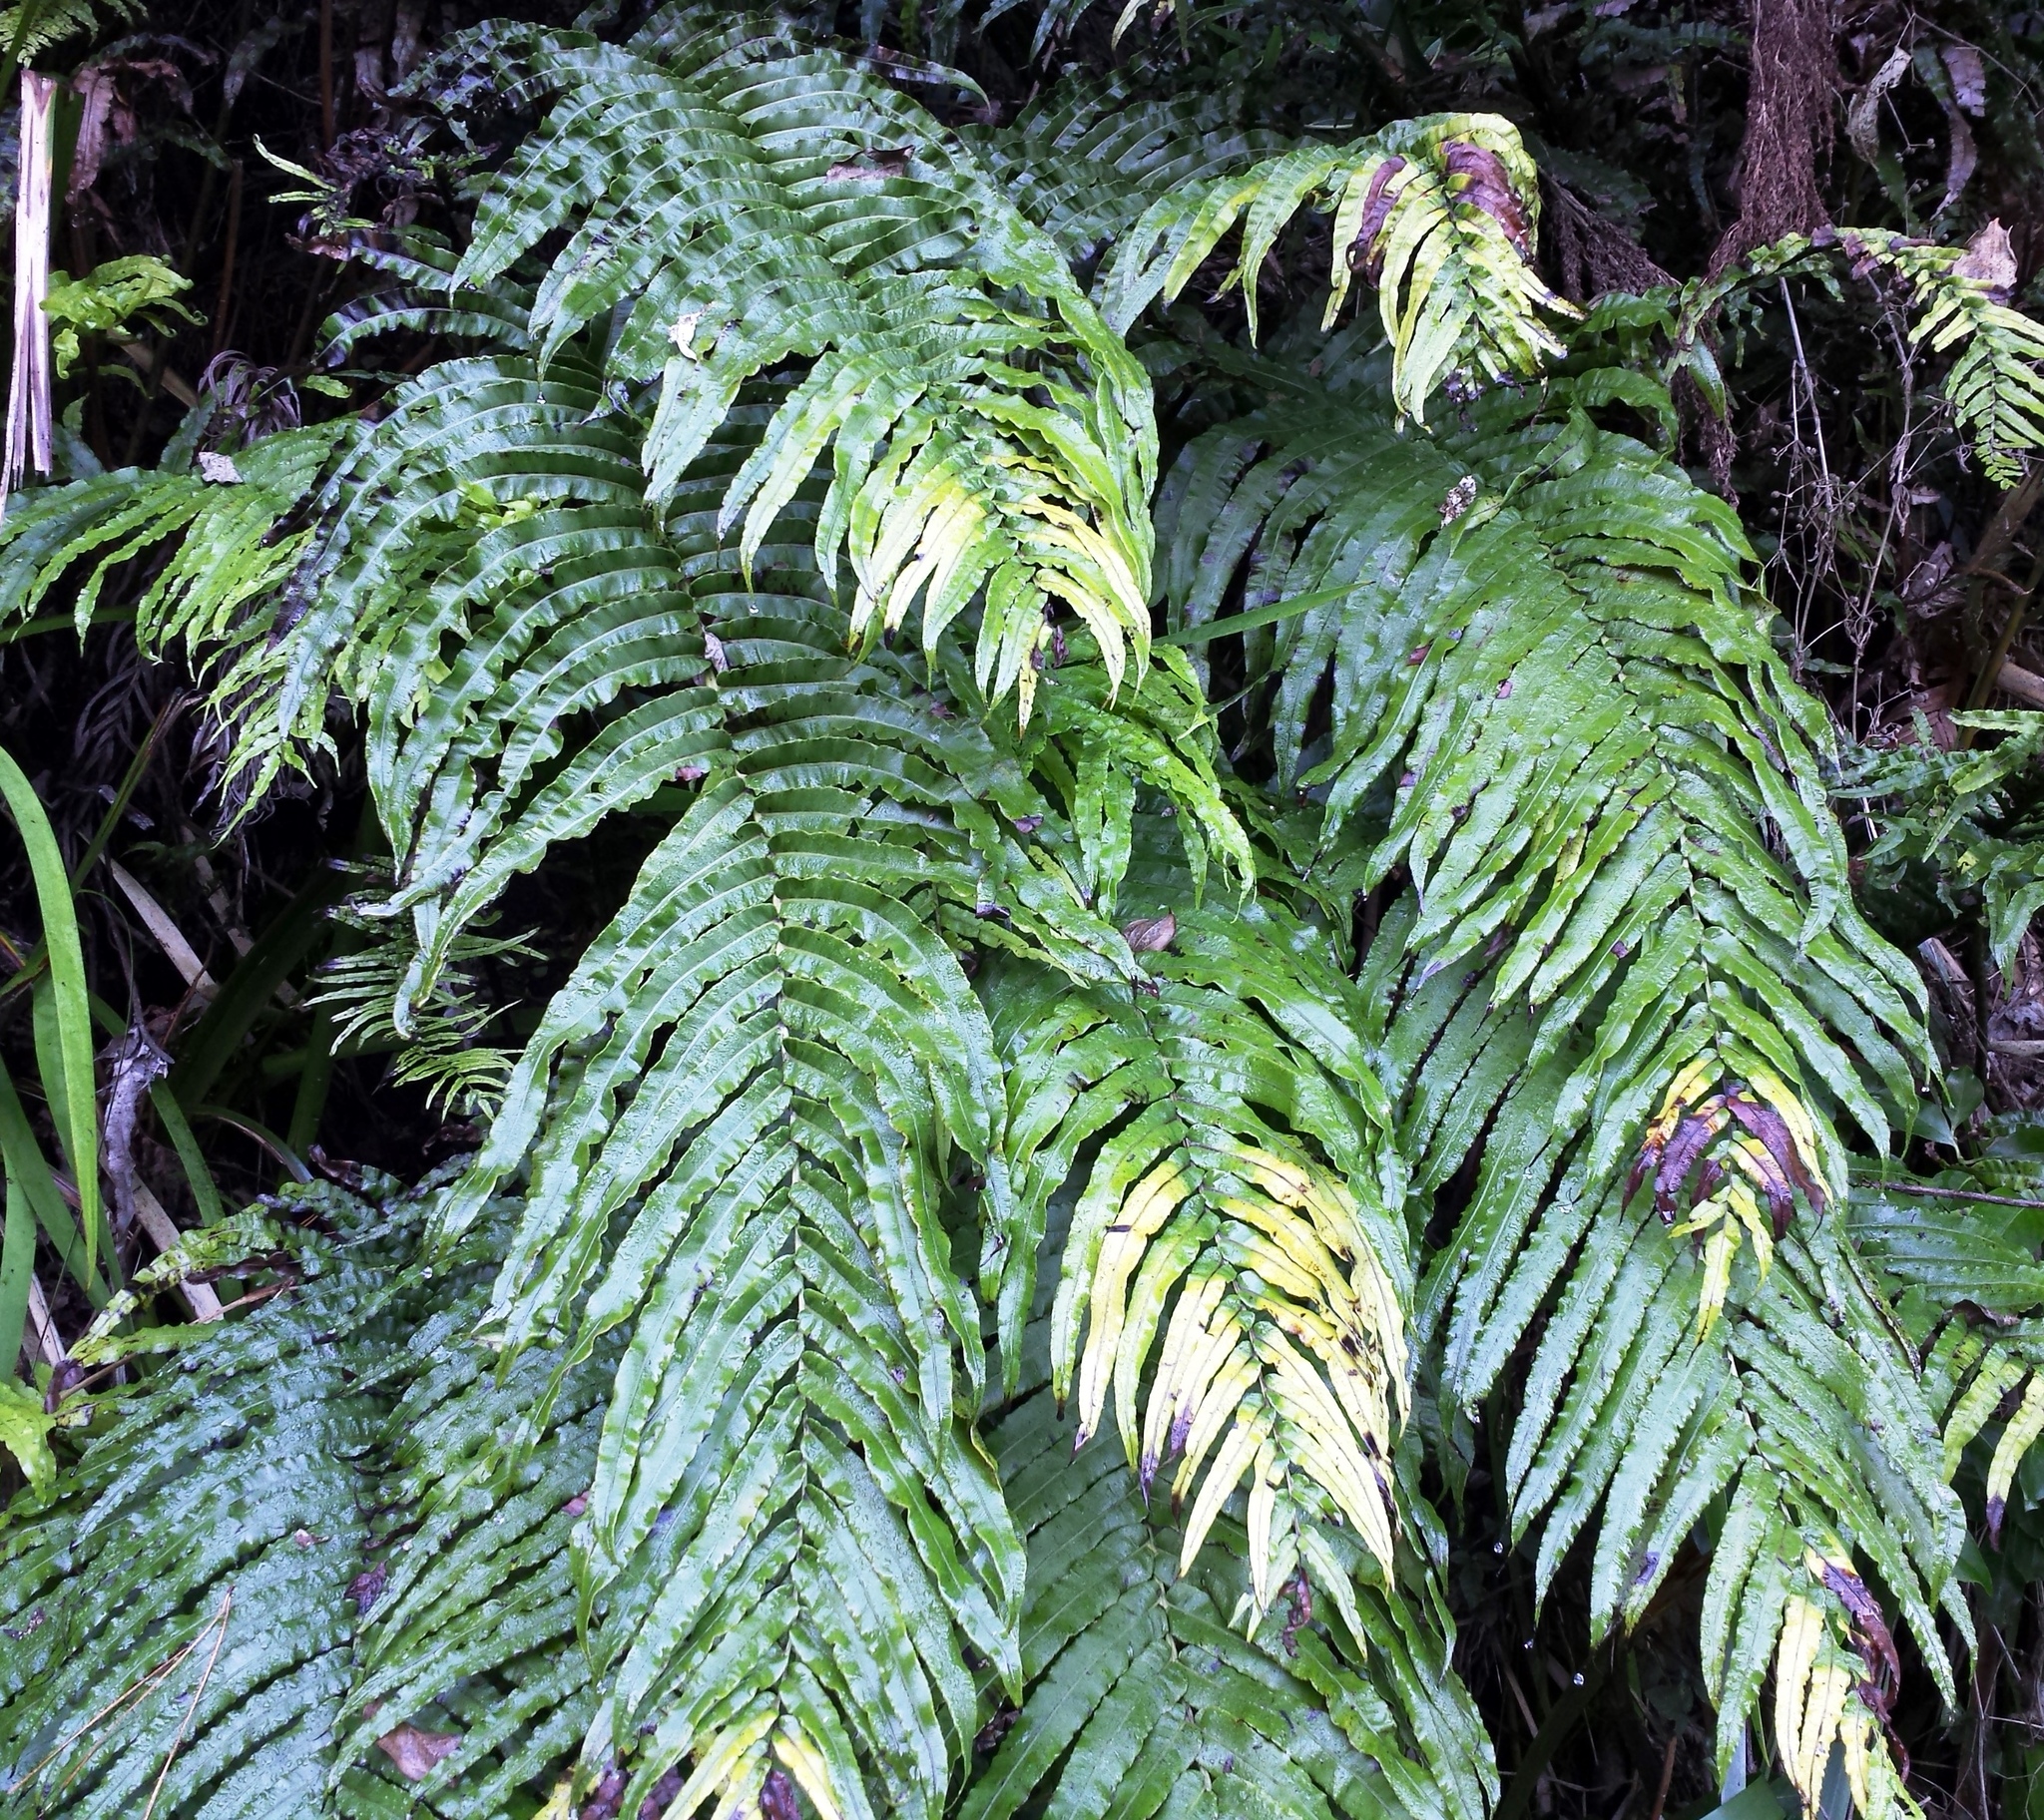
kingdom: Plantae
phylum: Tracheophyta
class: Polypodiopsida
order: Polypodiales
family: Blechnaceae
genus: Parablechnum
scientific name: Parablechnum novae-zelandiae
